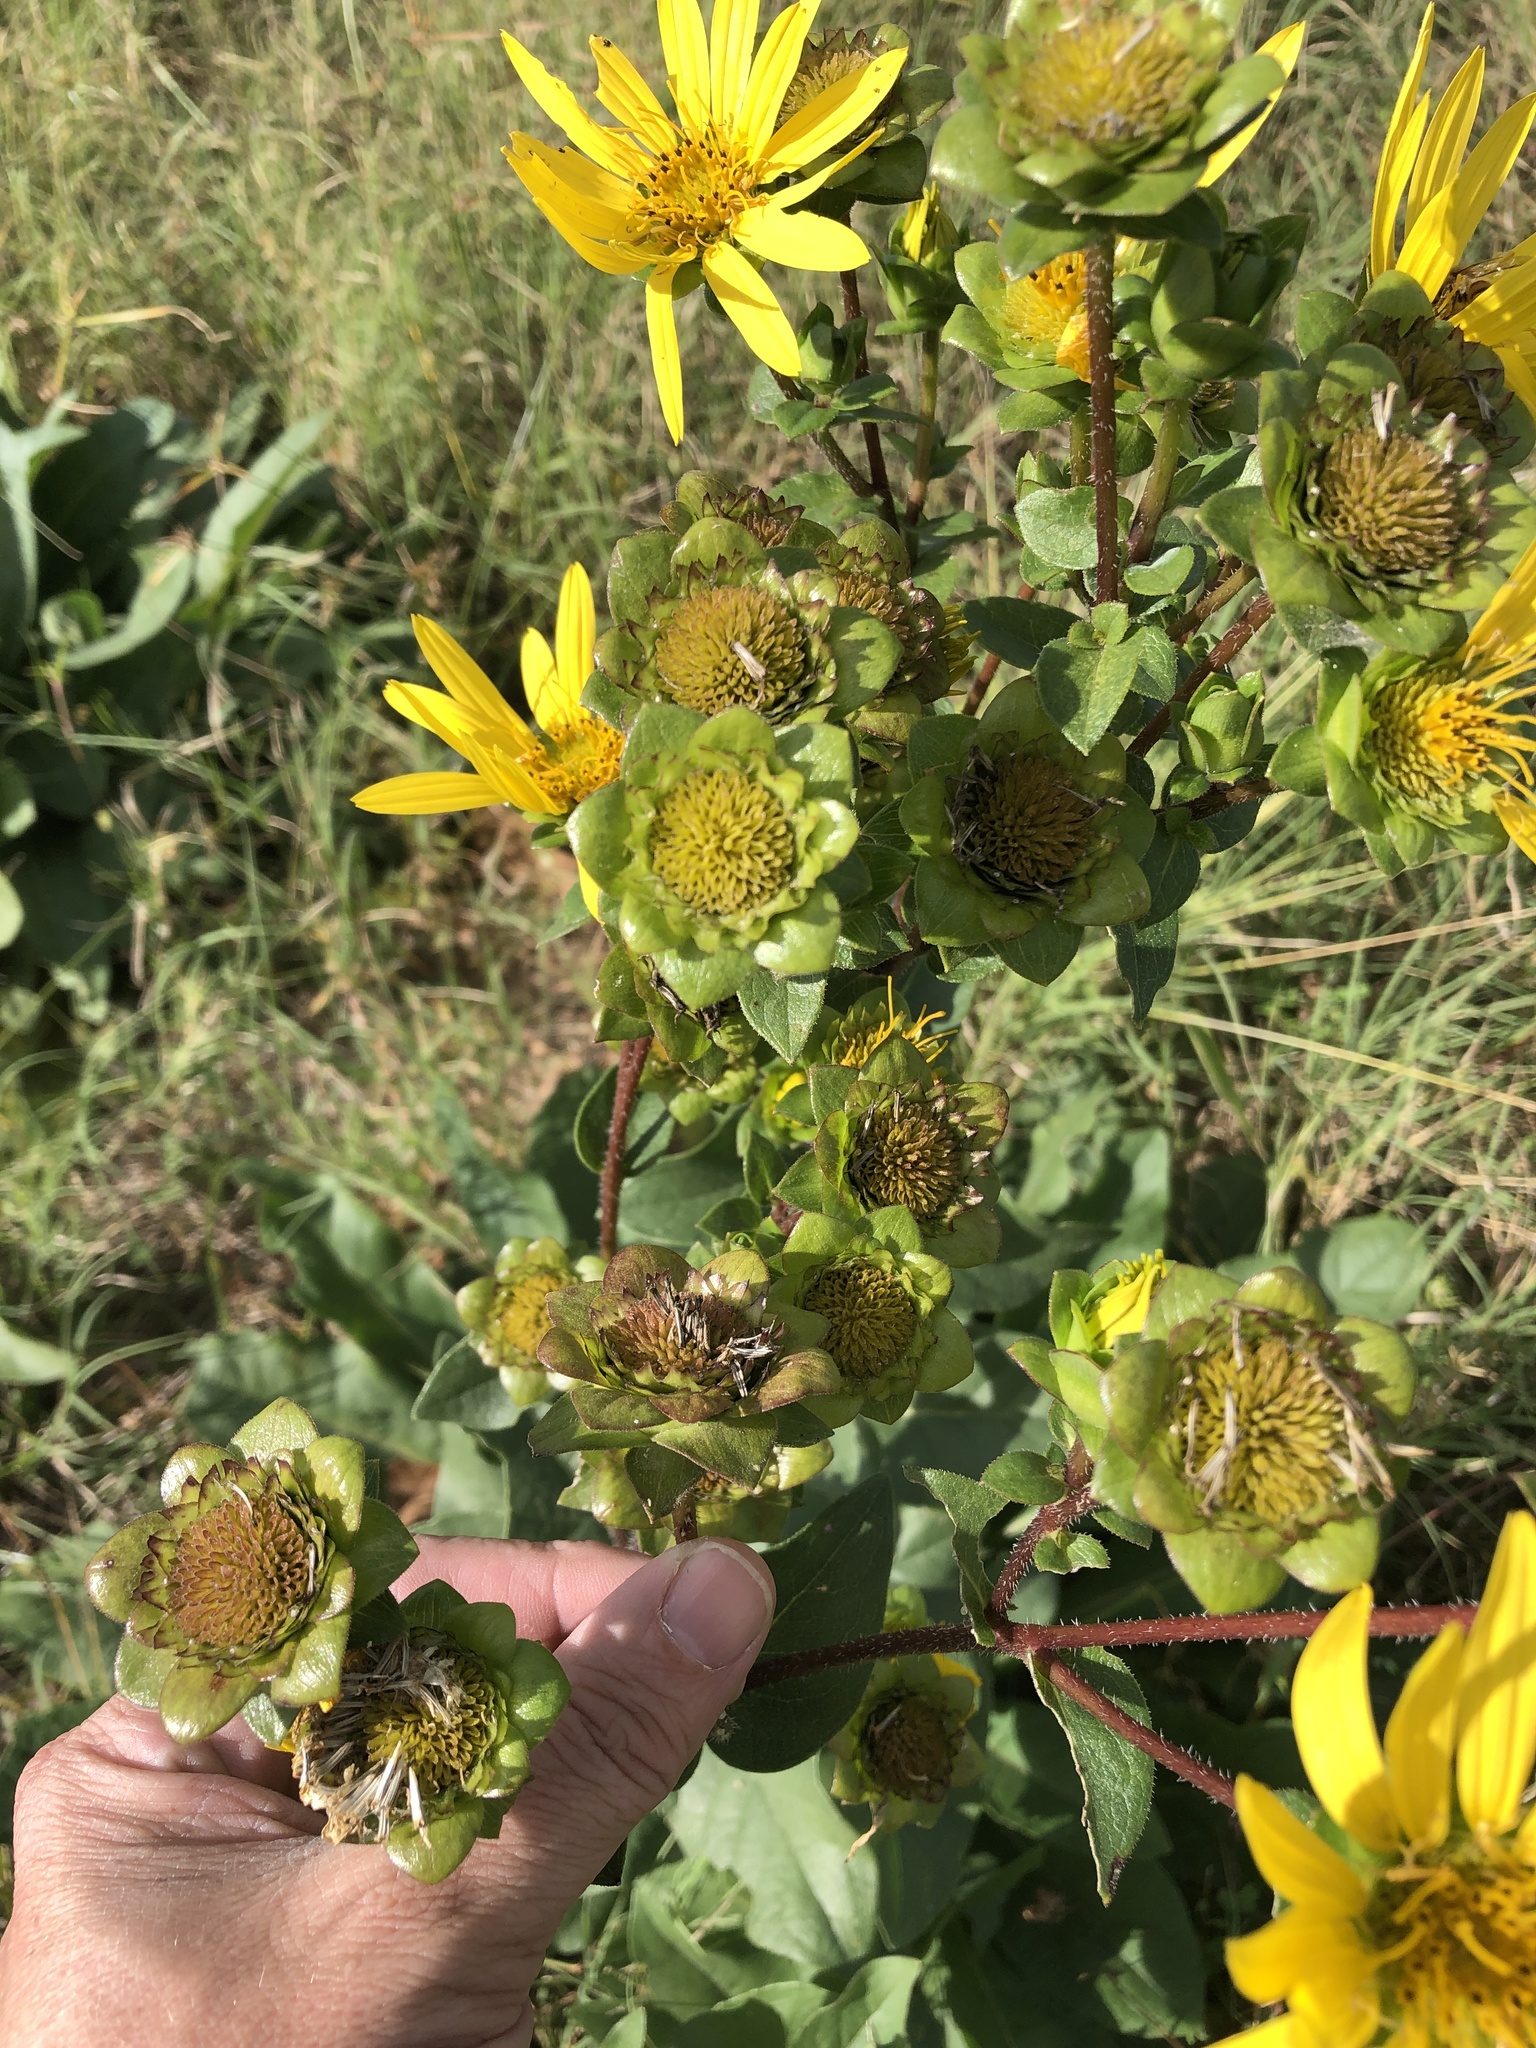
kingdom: Plantae
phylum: Tracheophyta
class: Magnoliopsida
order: Asterales
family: Asteraceae
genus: Silphium
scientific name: Silphium radula
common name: Roughleaf rosinweed
